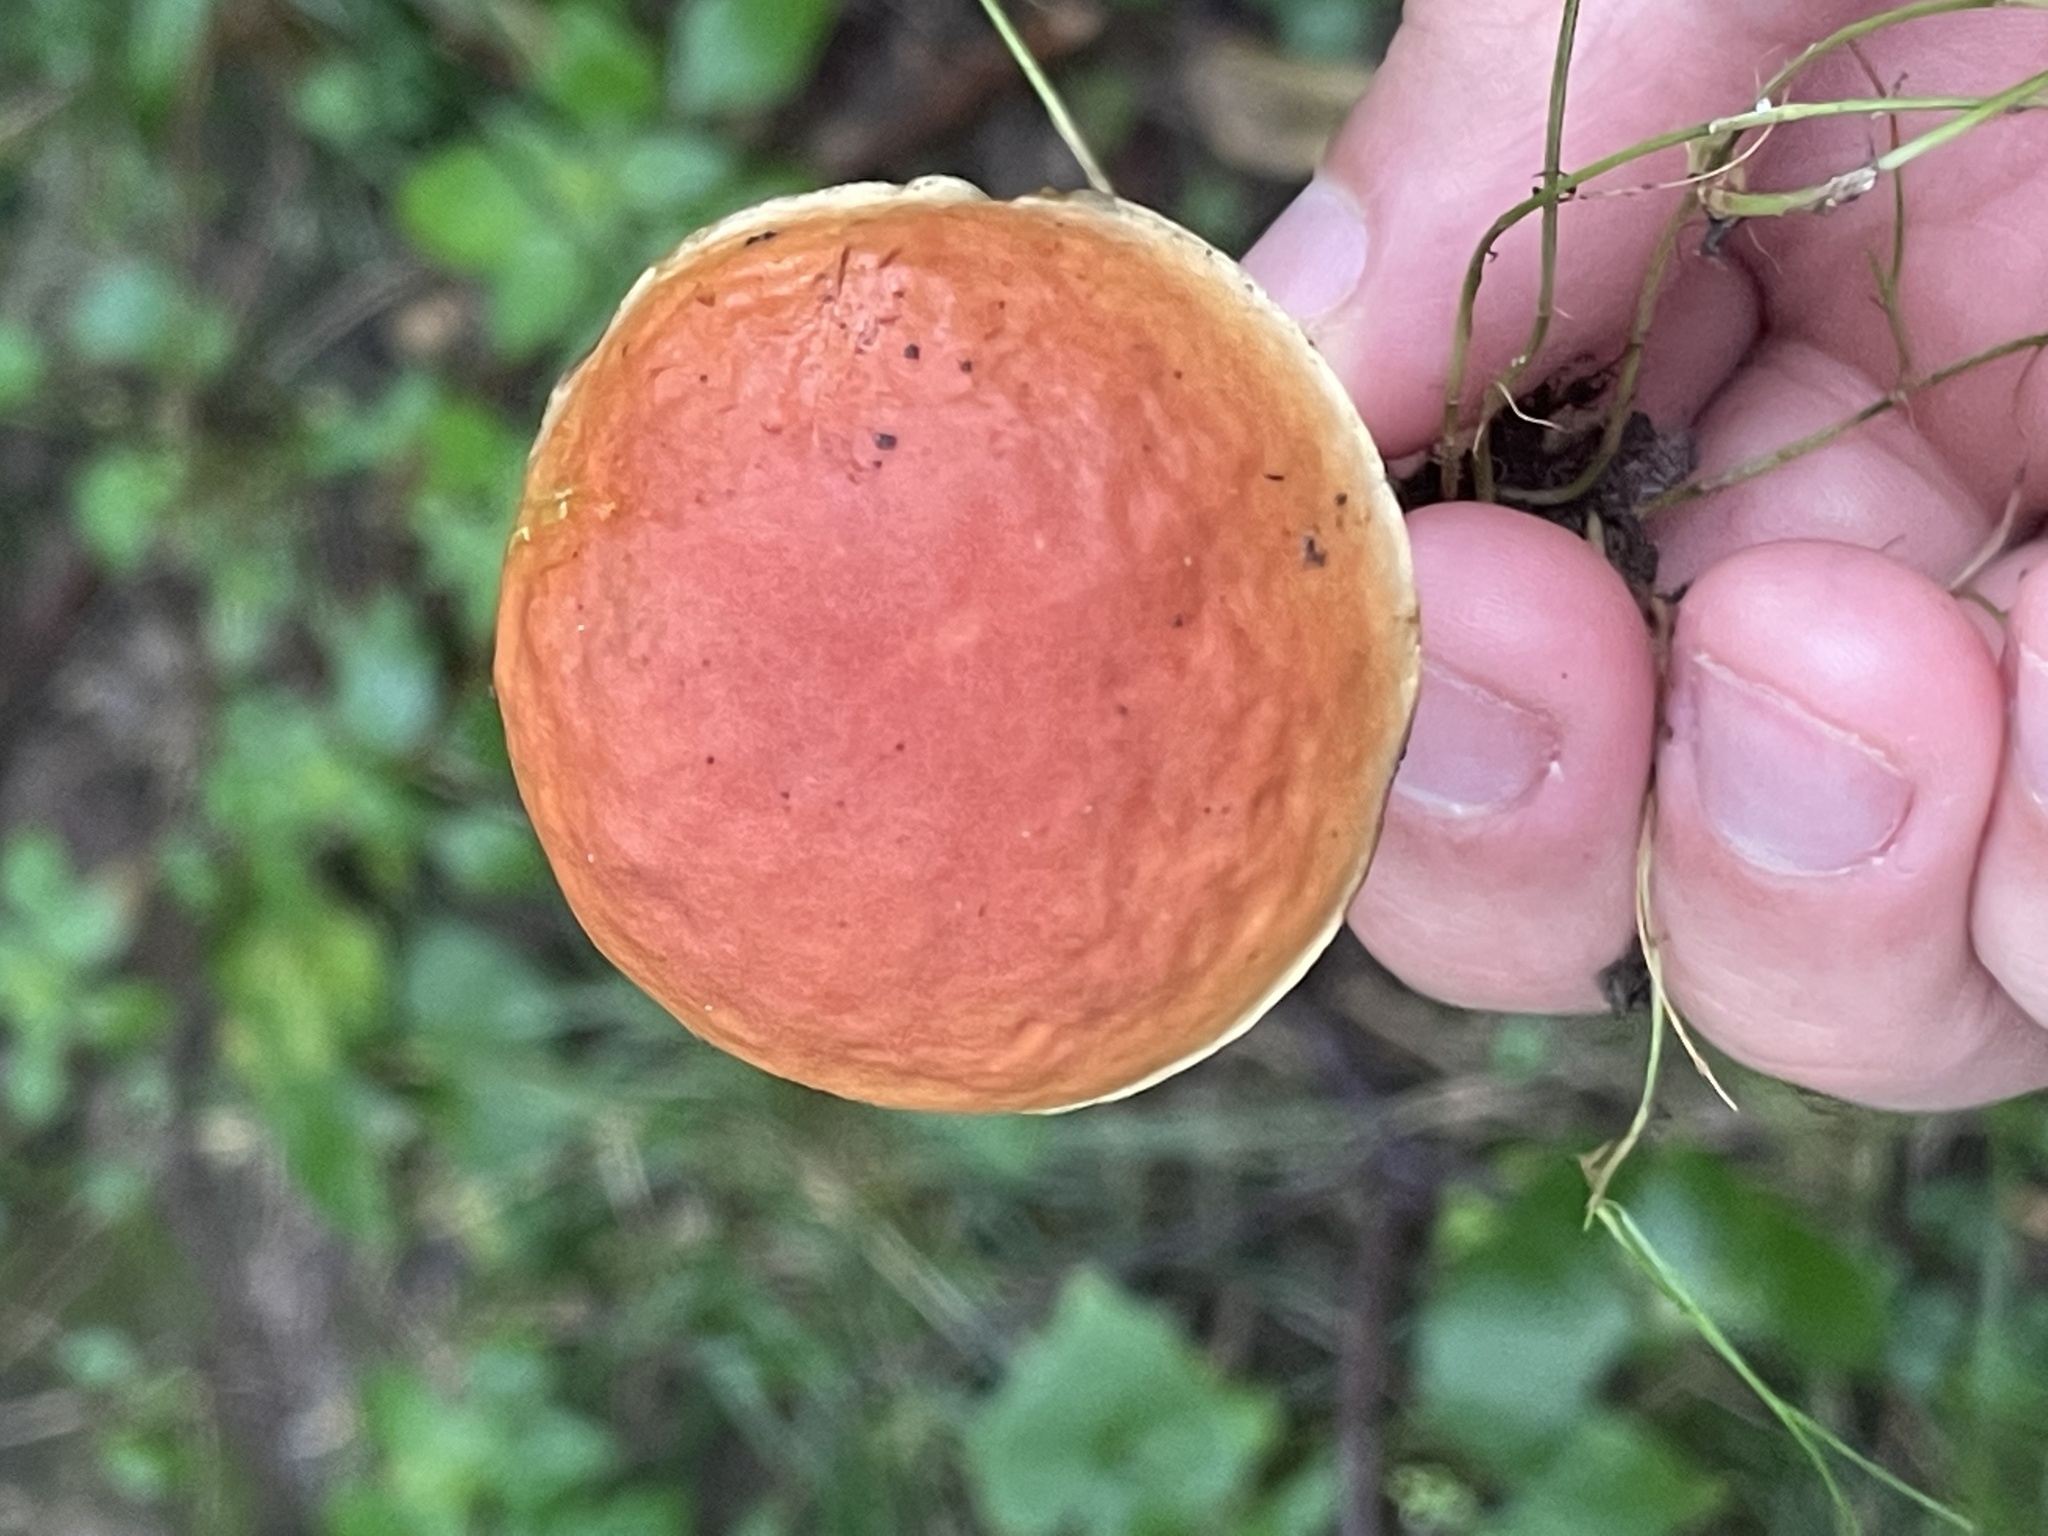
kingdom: Fungi
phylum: Basidiomycota
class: Agaricomycetes
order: Boletales
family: Boletaceae
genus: Hortiboletus
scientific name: Hortiboletus rubellus
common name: Ruby bolete
